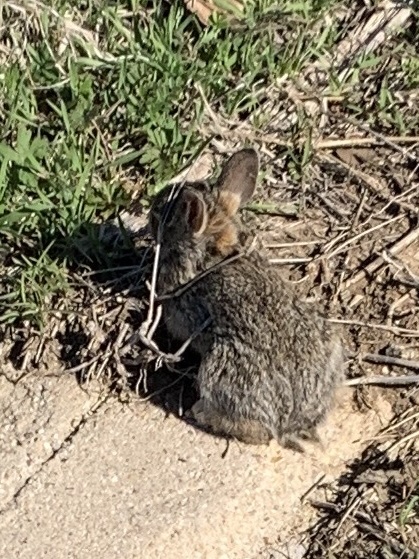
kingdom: Animalia
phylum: Chordata
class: Mammalia
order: Lagomorpha
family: Leporidae
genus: Sylvilagus
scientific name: Sylvilagus floridanus
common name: Eastern cottontail
